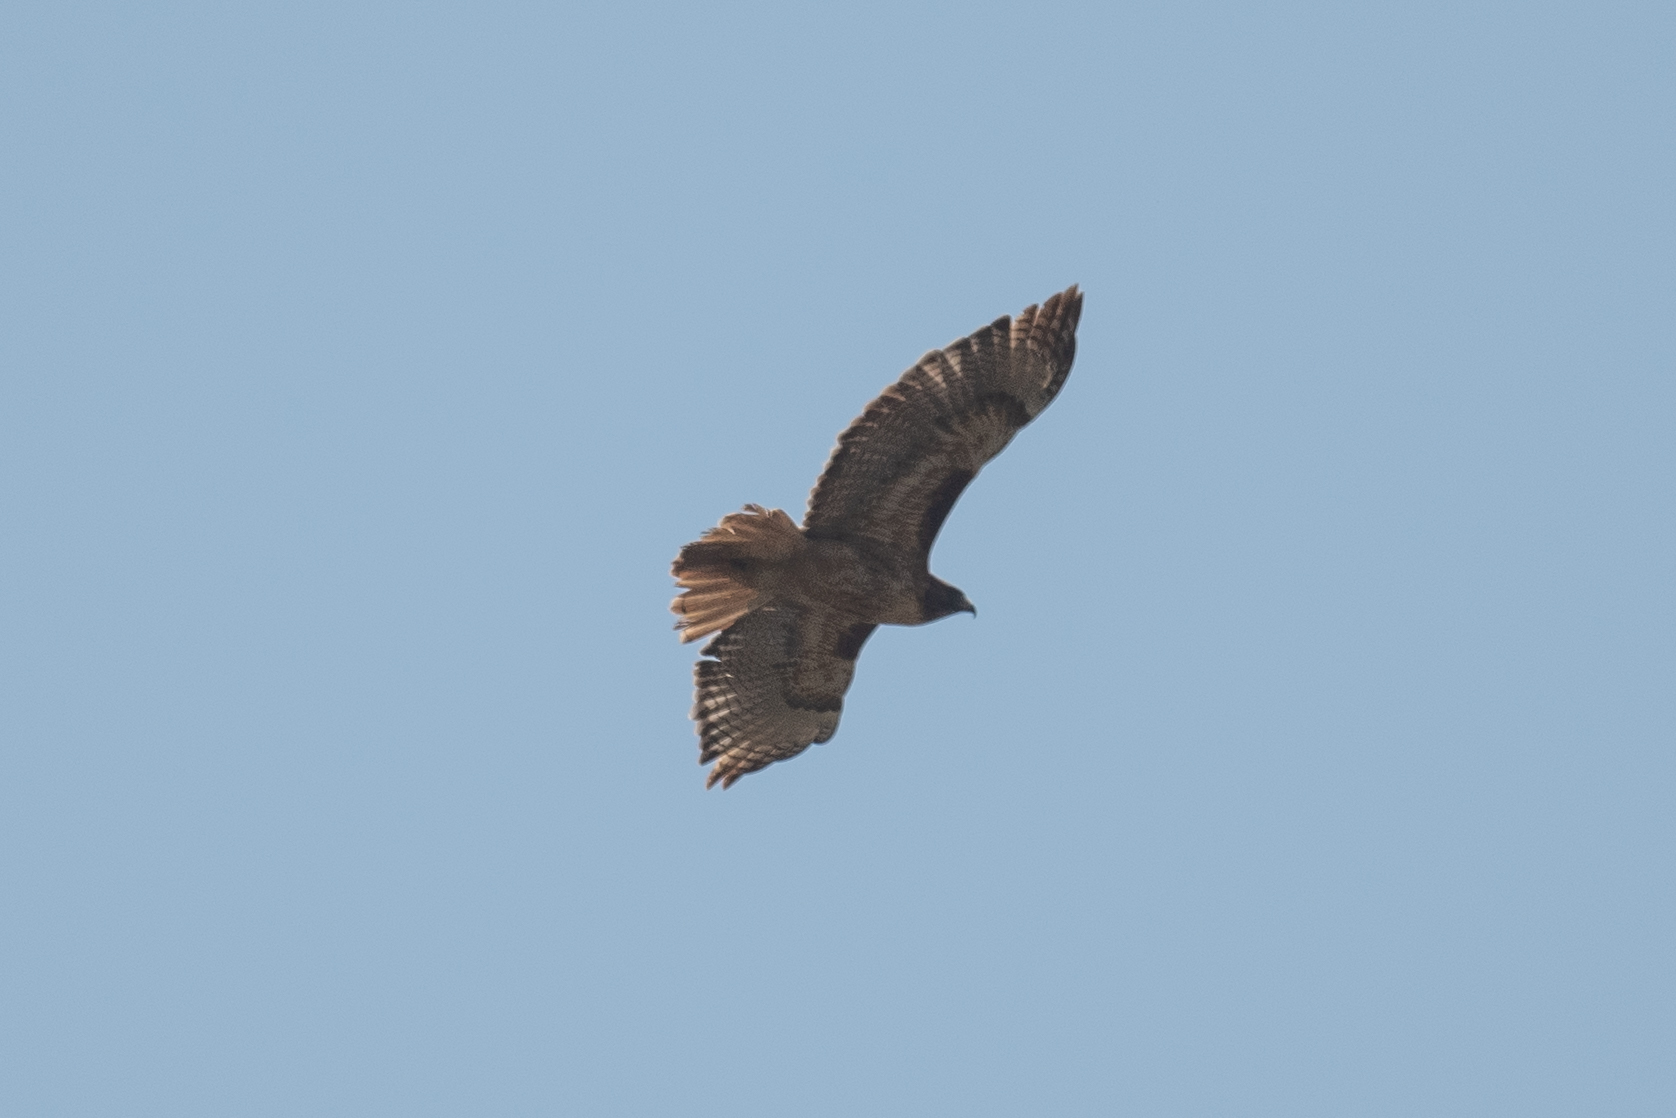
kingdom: Animalia
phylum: Chordata
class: Aves
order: Accipitriformes
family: Accipitridae
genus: Buteo
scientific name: Buteo jamaicensis
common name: Red-tailed hawk
